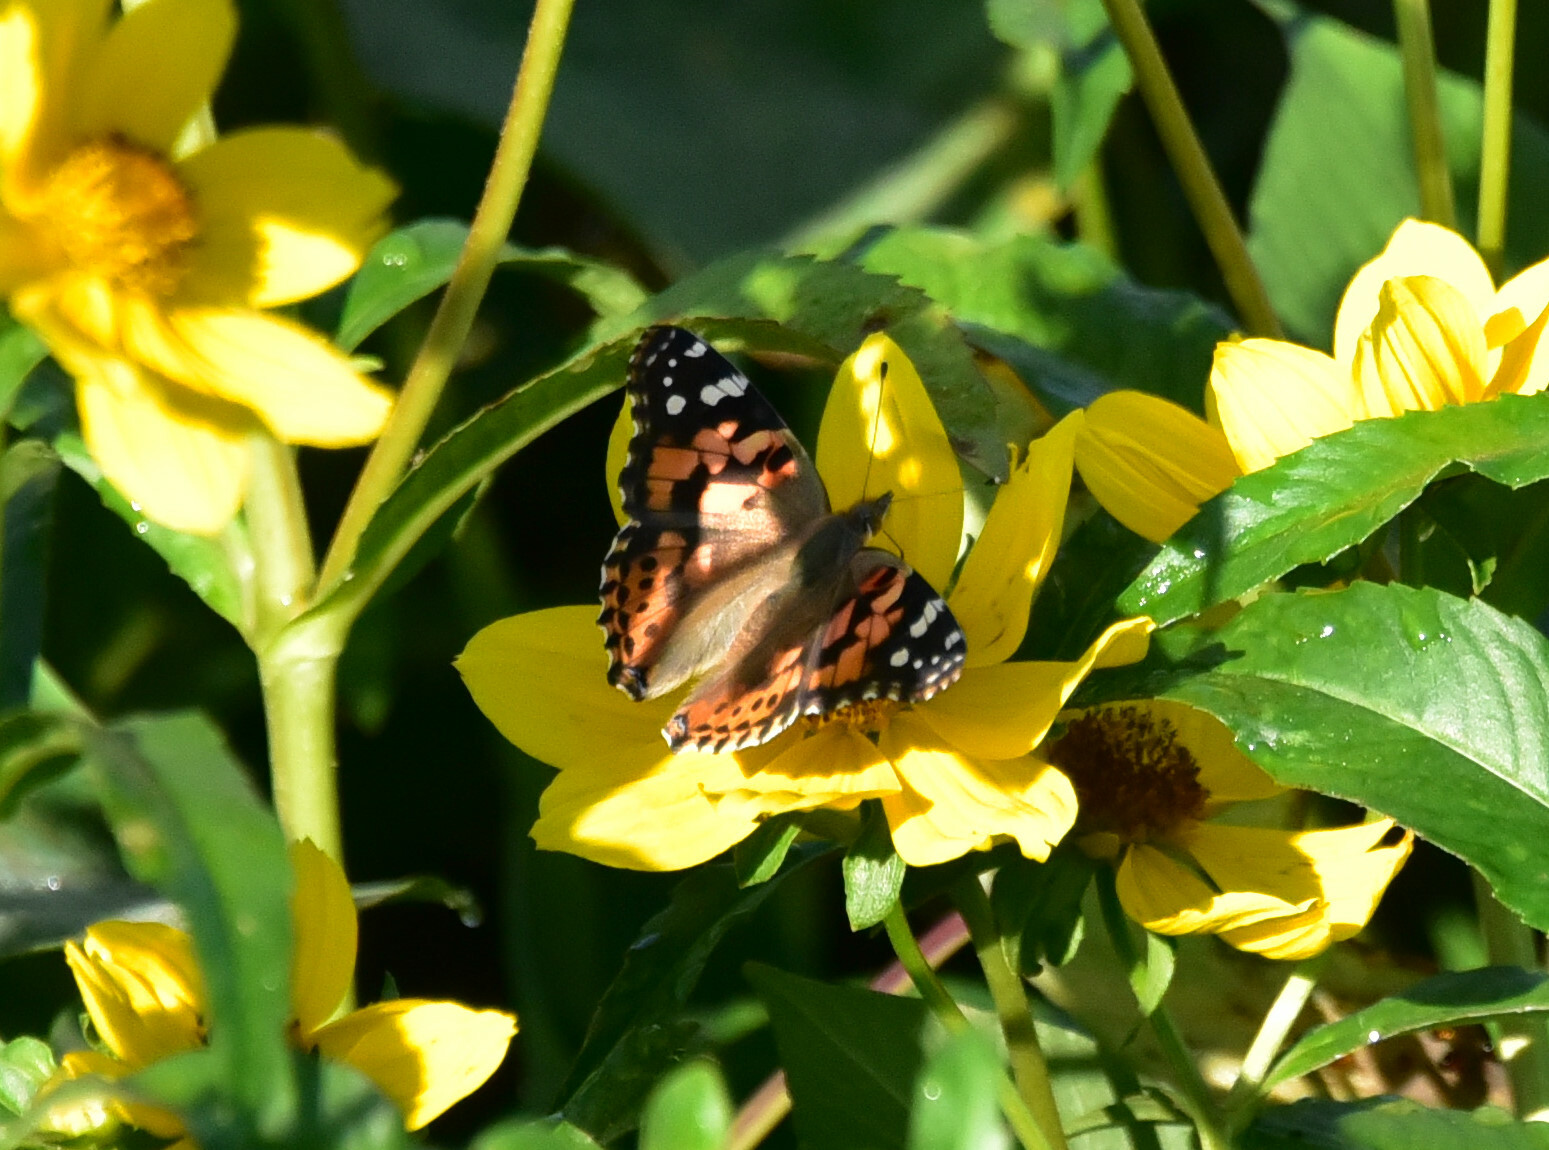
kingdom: Animalia
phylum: Arthropoda
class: Insecta
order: Lepidoptera
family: Nymphalidae
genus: Vanessa
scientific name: Vanessa cardui
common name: Painted lady
